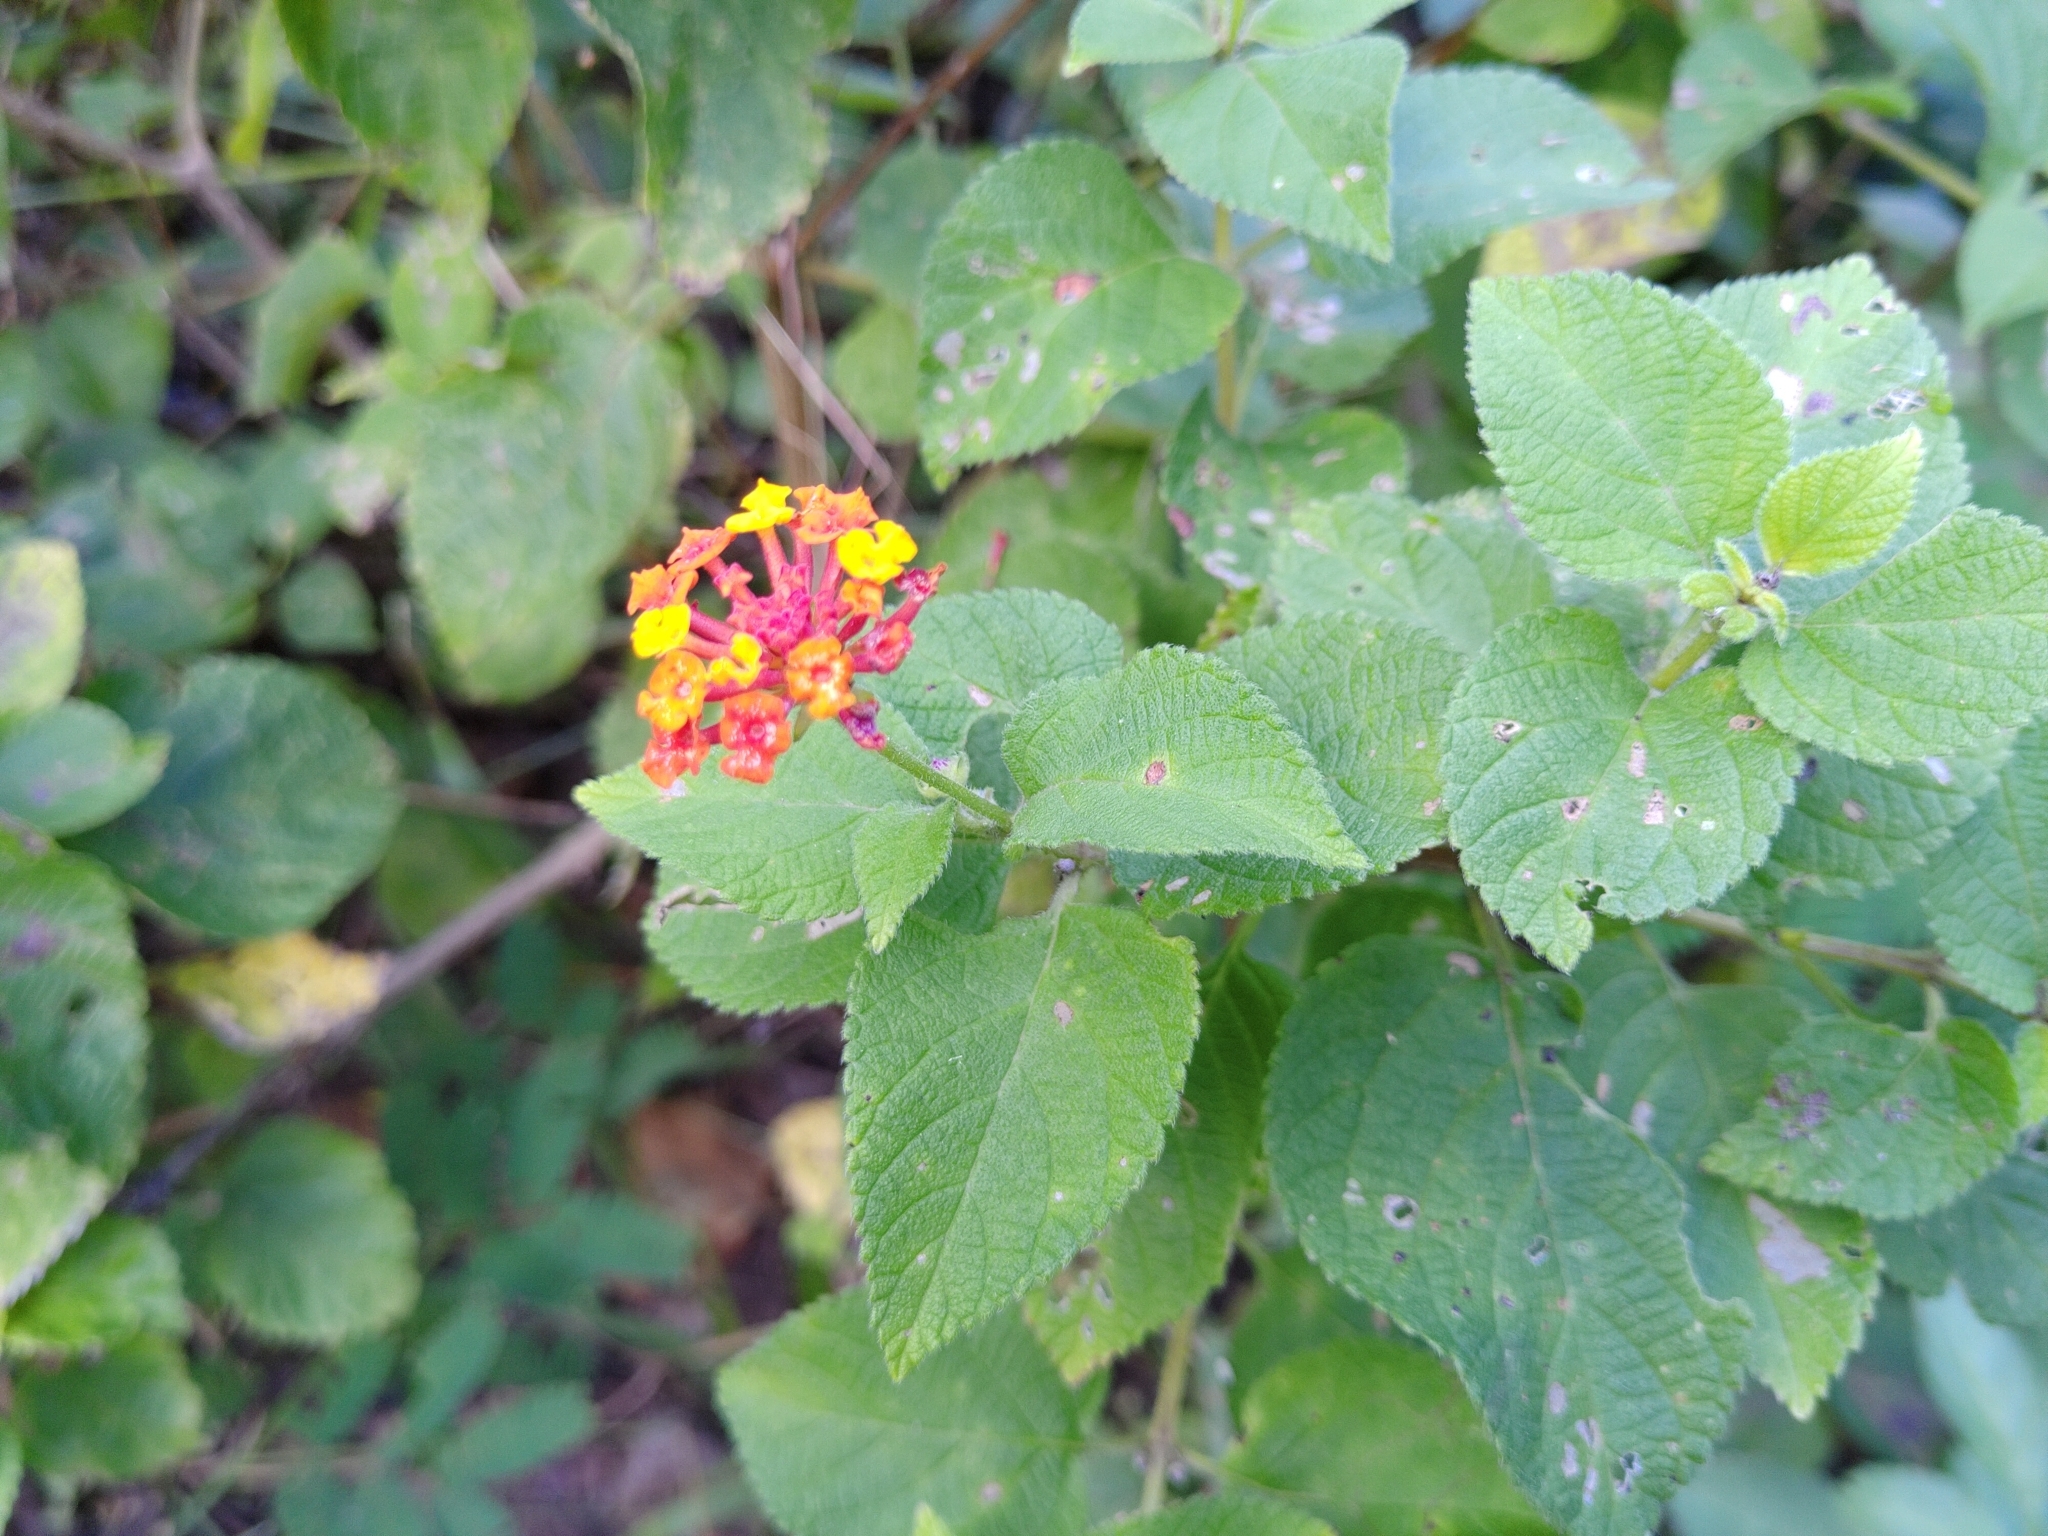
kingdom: Plantae
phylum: Tracheophyta
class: Magnoliopsida
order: Lamiales
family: Verbenaceae
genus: Lantana
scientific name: Lantana camara
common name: Lantana
